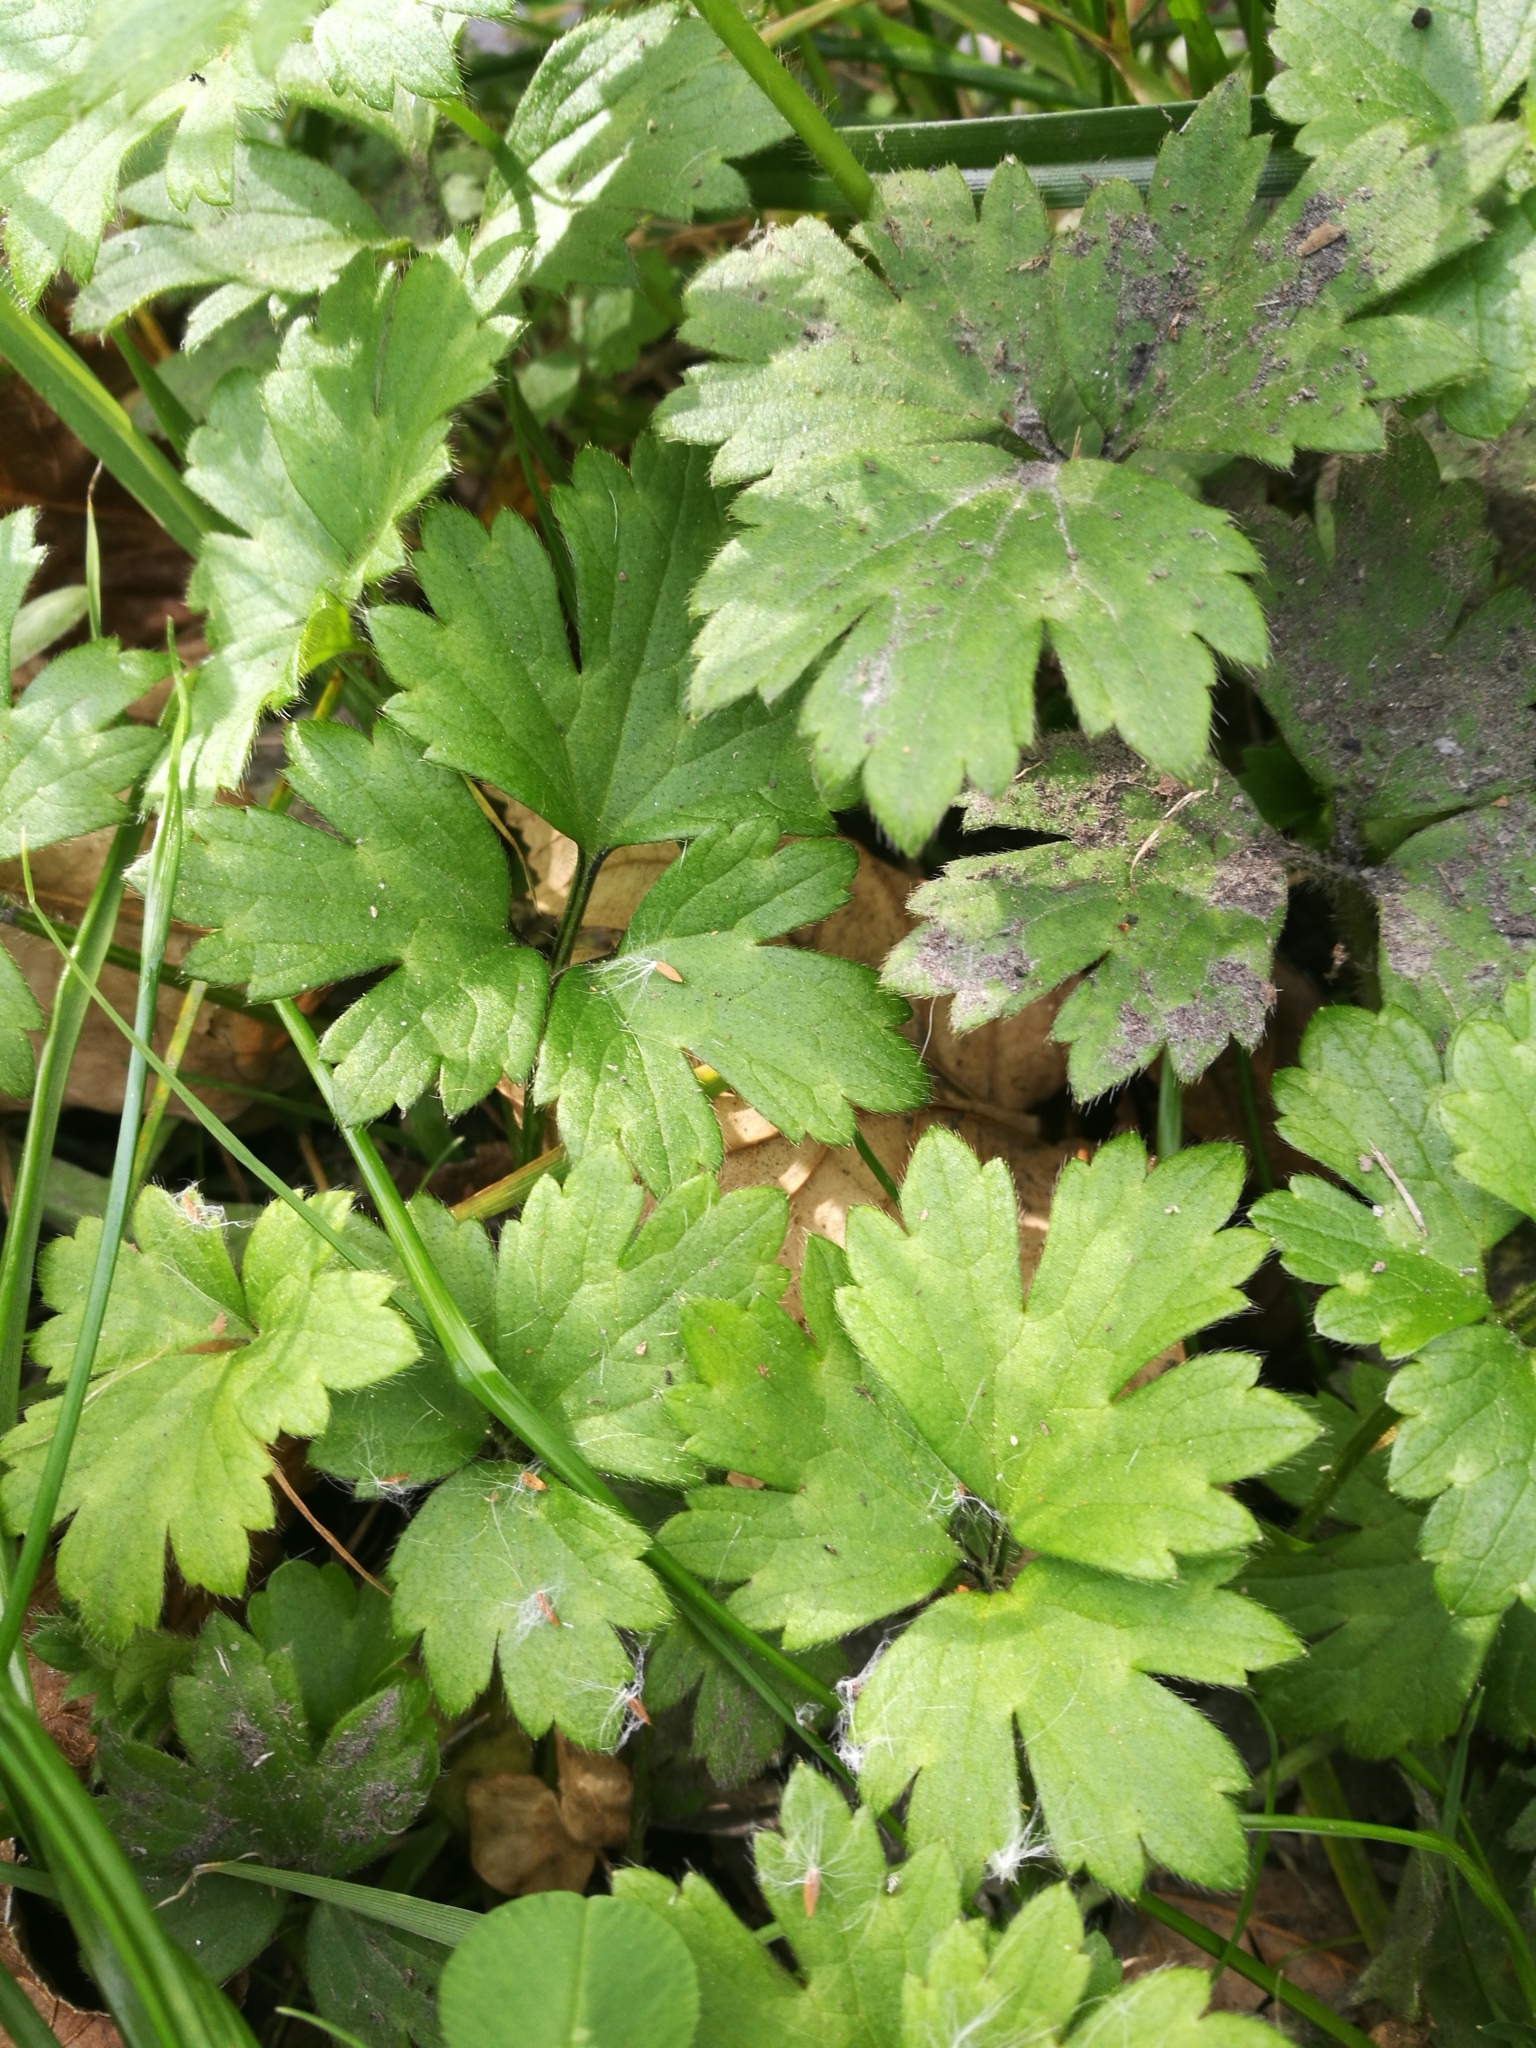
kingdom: Plantae
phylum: Tracheophyta
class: Magnoliopsida
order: Ranunculales
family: Ranunculaceae
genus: Ranunculus
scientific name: Ranunculus repens
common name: Creeping buttercup
